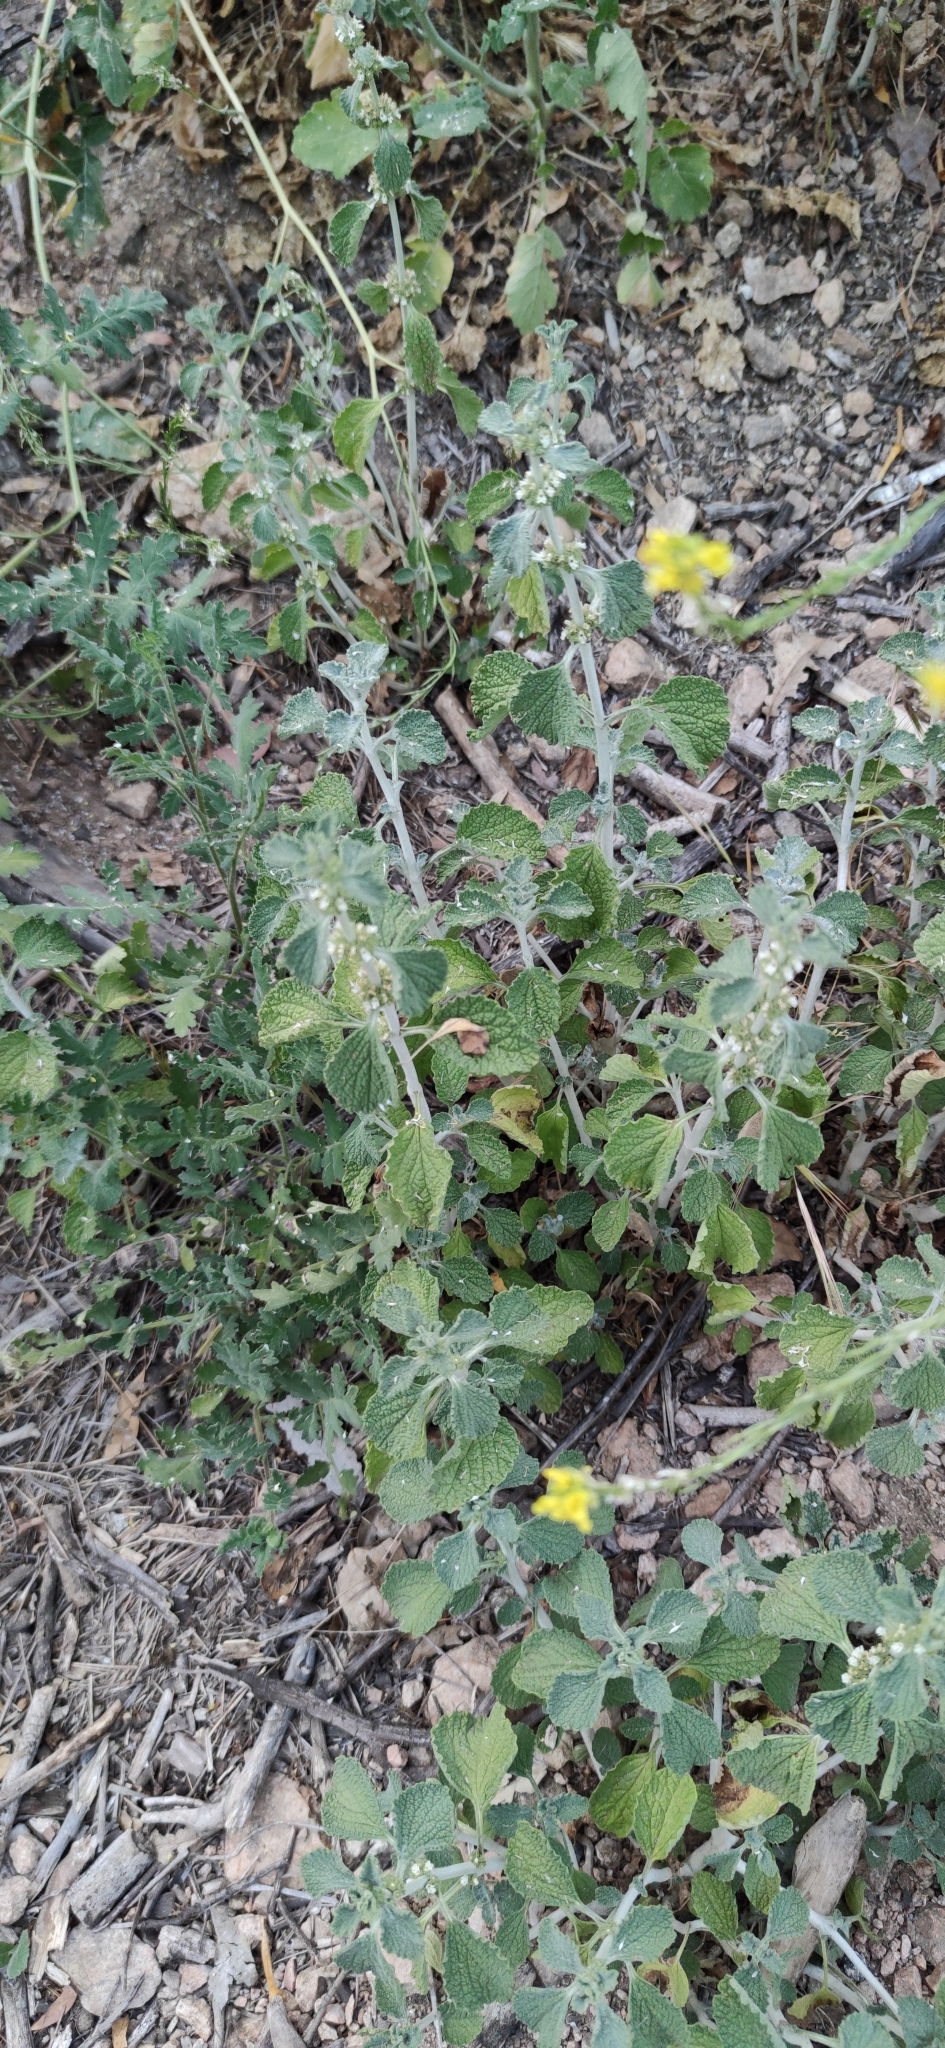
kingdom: Plantae
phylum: Tracheophyta
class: Magnoliopsida
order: Lamiales
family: Lamiaceae
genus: Marrubium
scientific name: Marrubium vulgare
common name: Horehound
